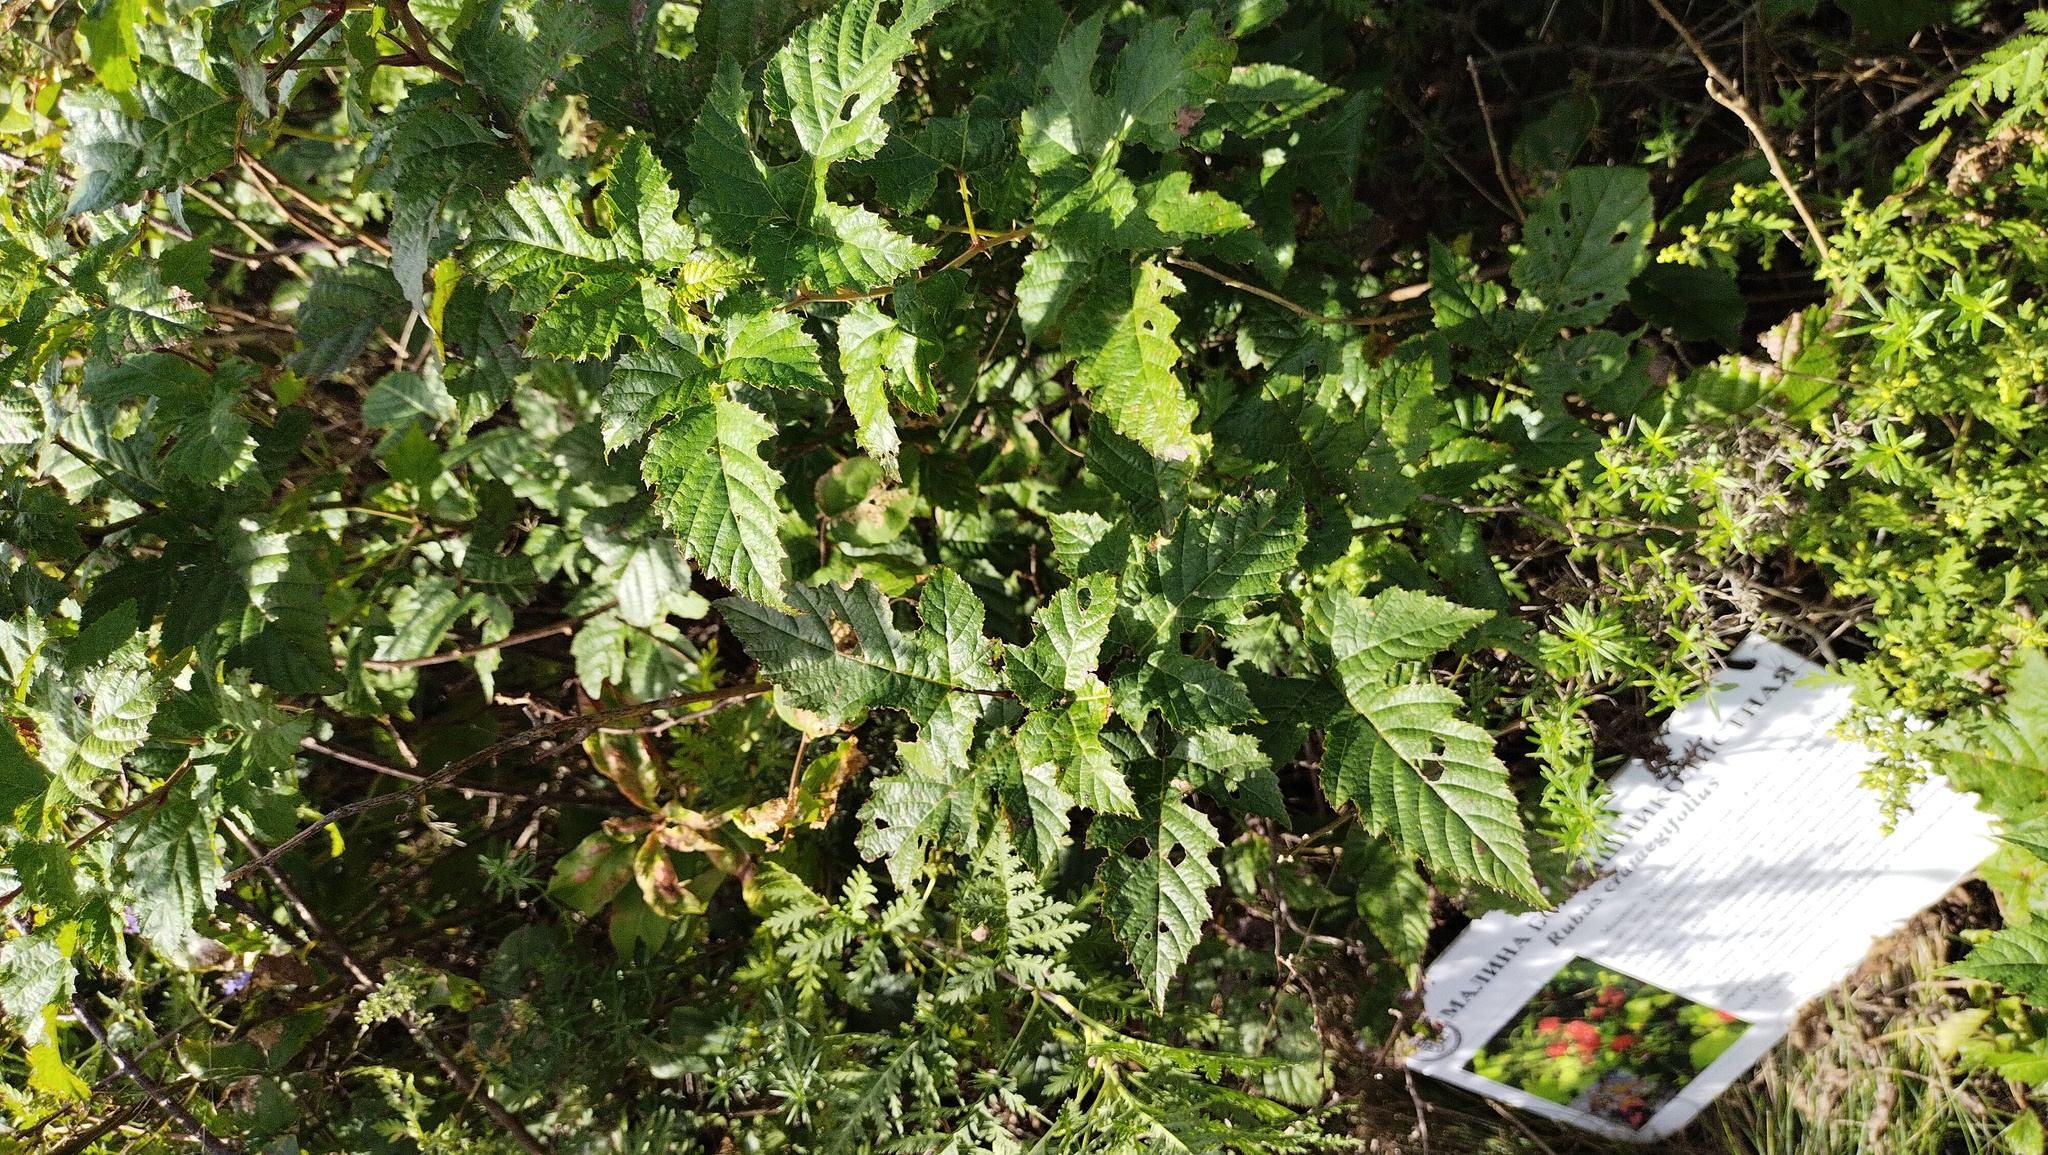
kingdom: Plantae
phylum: Tracheophyta
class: Magnoliopsida
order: Rosales
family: Rosaceae
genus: Rubus
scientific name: Rubus crataegifolius
